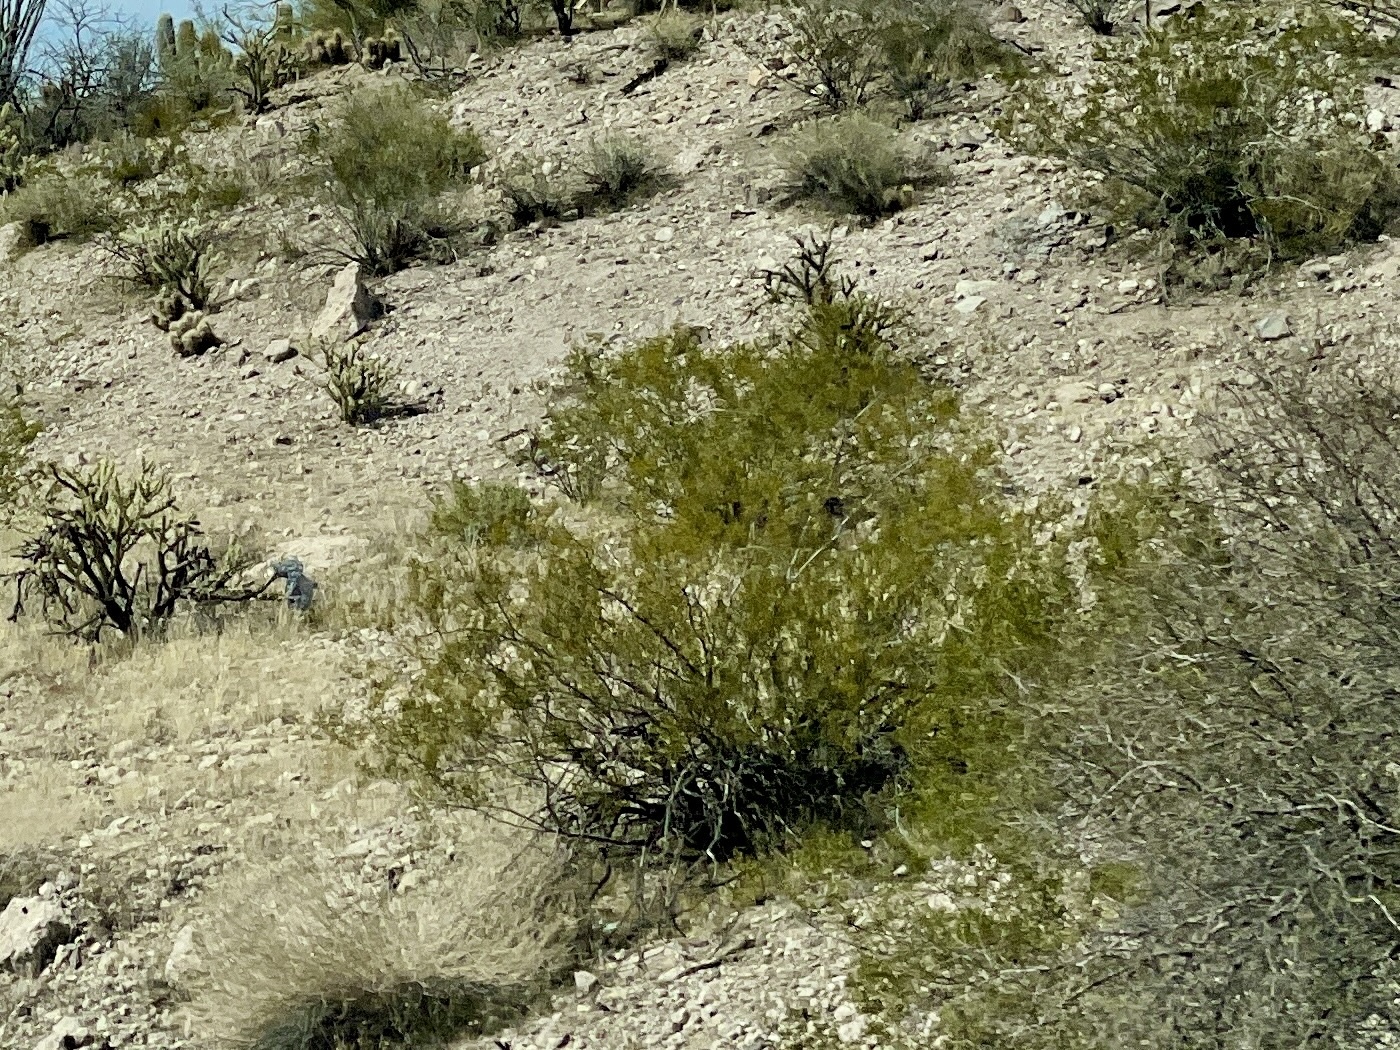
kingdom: Plantae
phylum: Tracheophyta
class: Magnoliopsida
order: Zygophyllales
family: Zygophyllaceae
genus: Larrea
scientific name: Larrea tridentata
